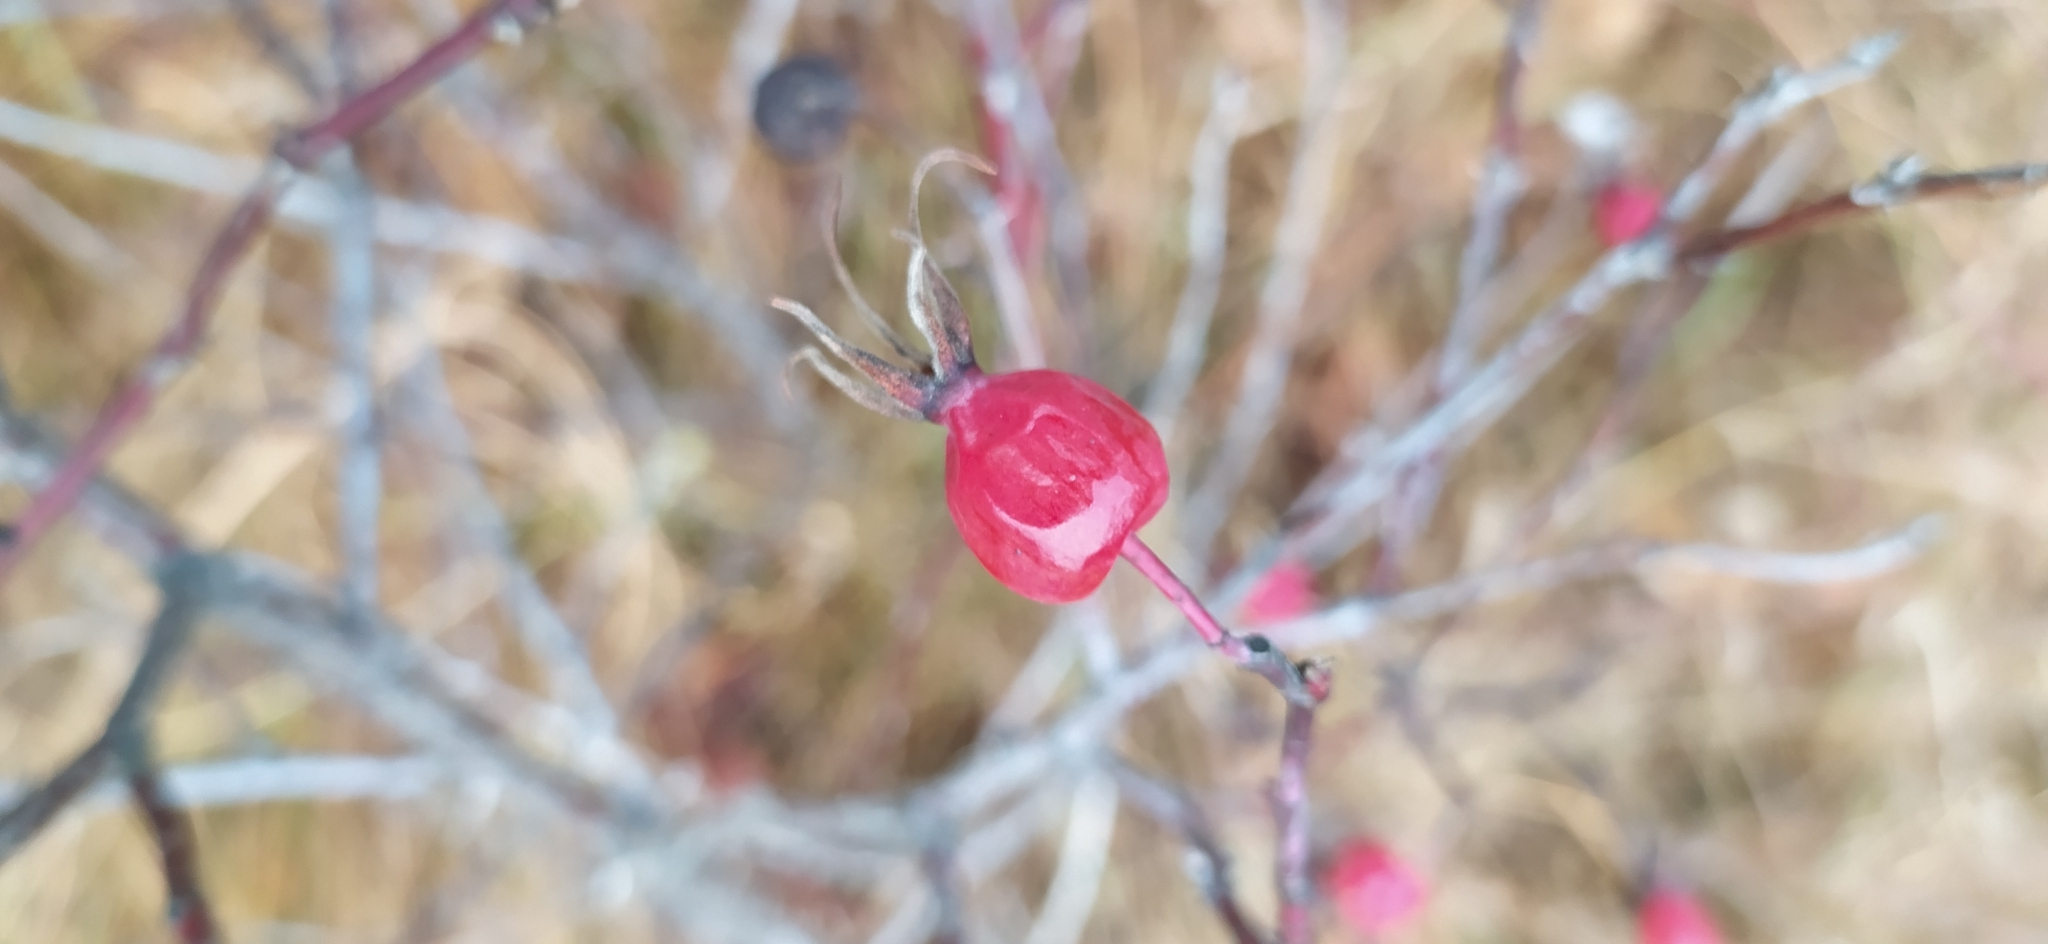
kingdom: Plantae
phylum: Tracheophyta
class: Magnoliopsida
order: Rosales
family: Rosaceae
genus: Rosa
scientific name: Rosa majalis
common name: Cinnamon rose
